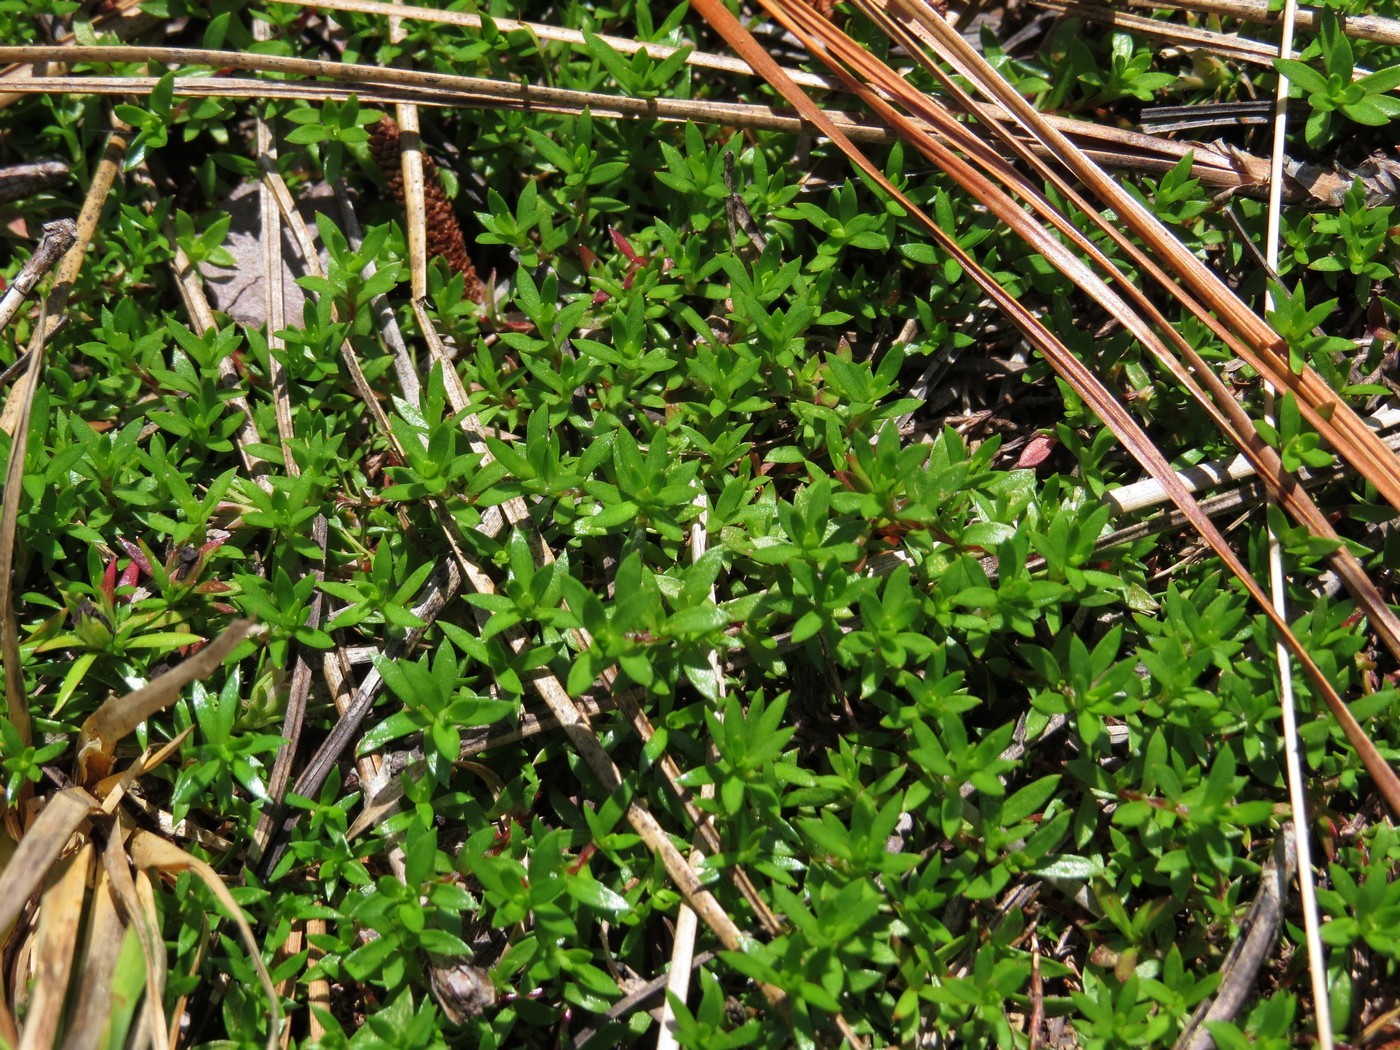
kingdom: Plantae
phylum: Tracheophyta
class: Magnoliopsida
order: Ericales
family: Diapensiaceae
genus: Pyxidanthera
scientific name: Pyxidanthera barbulata
